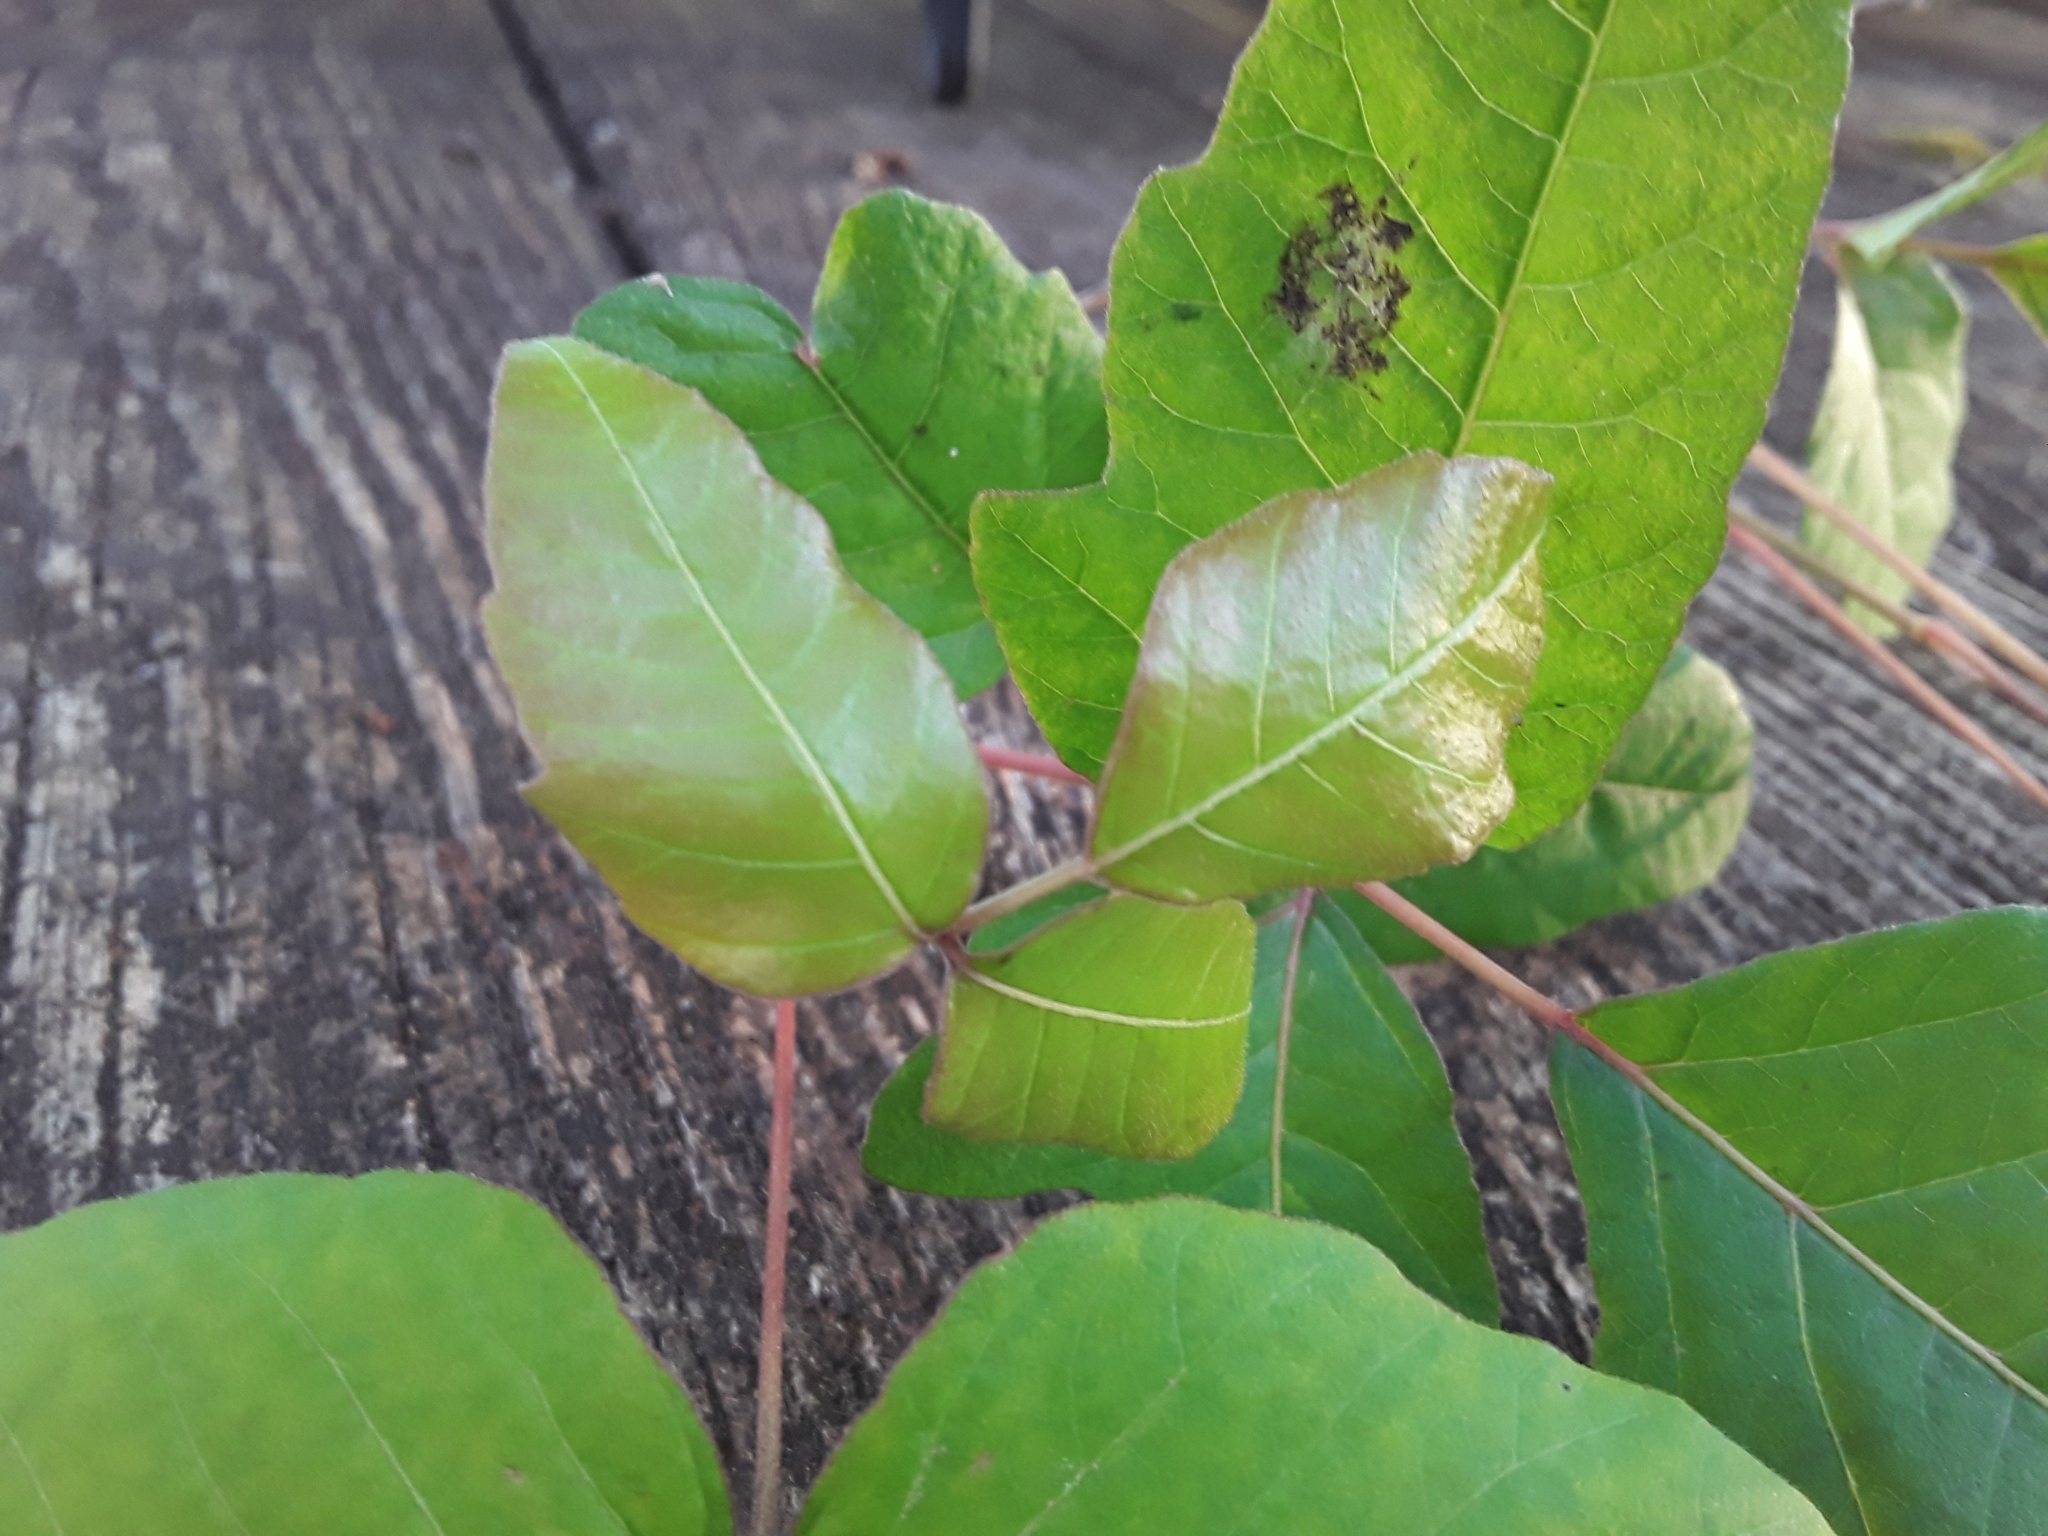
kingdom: Plantae
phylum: Tracheophyta
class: Magnoliopsida
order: Sapindales
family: Anacardiaceae
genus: Toxicodendron
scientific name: Toxicodendron radicans
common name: Poison ivy
